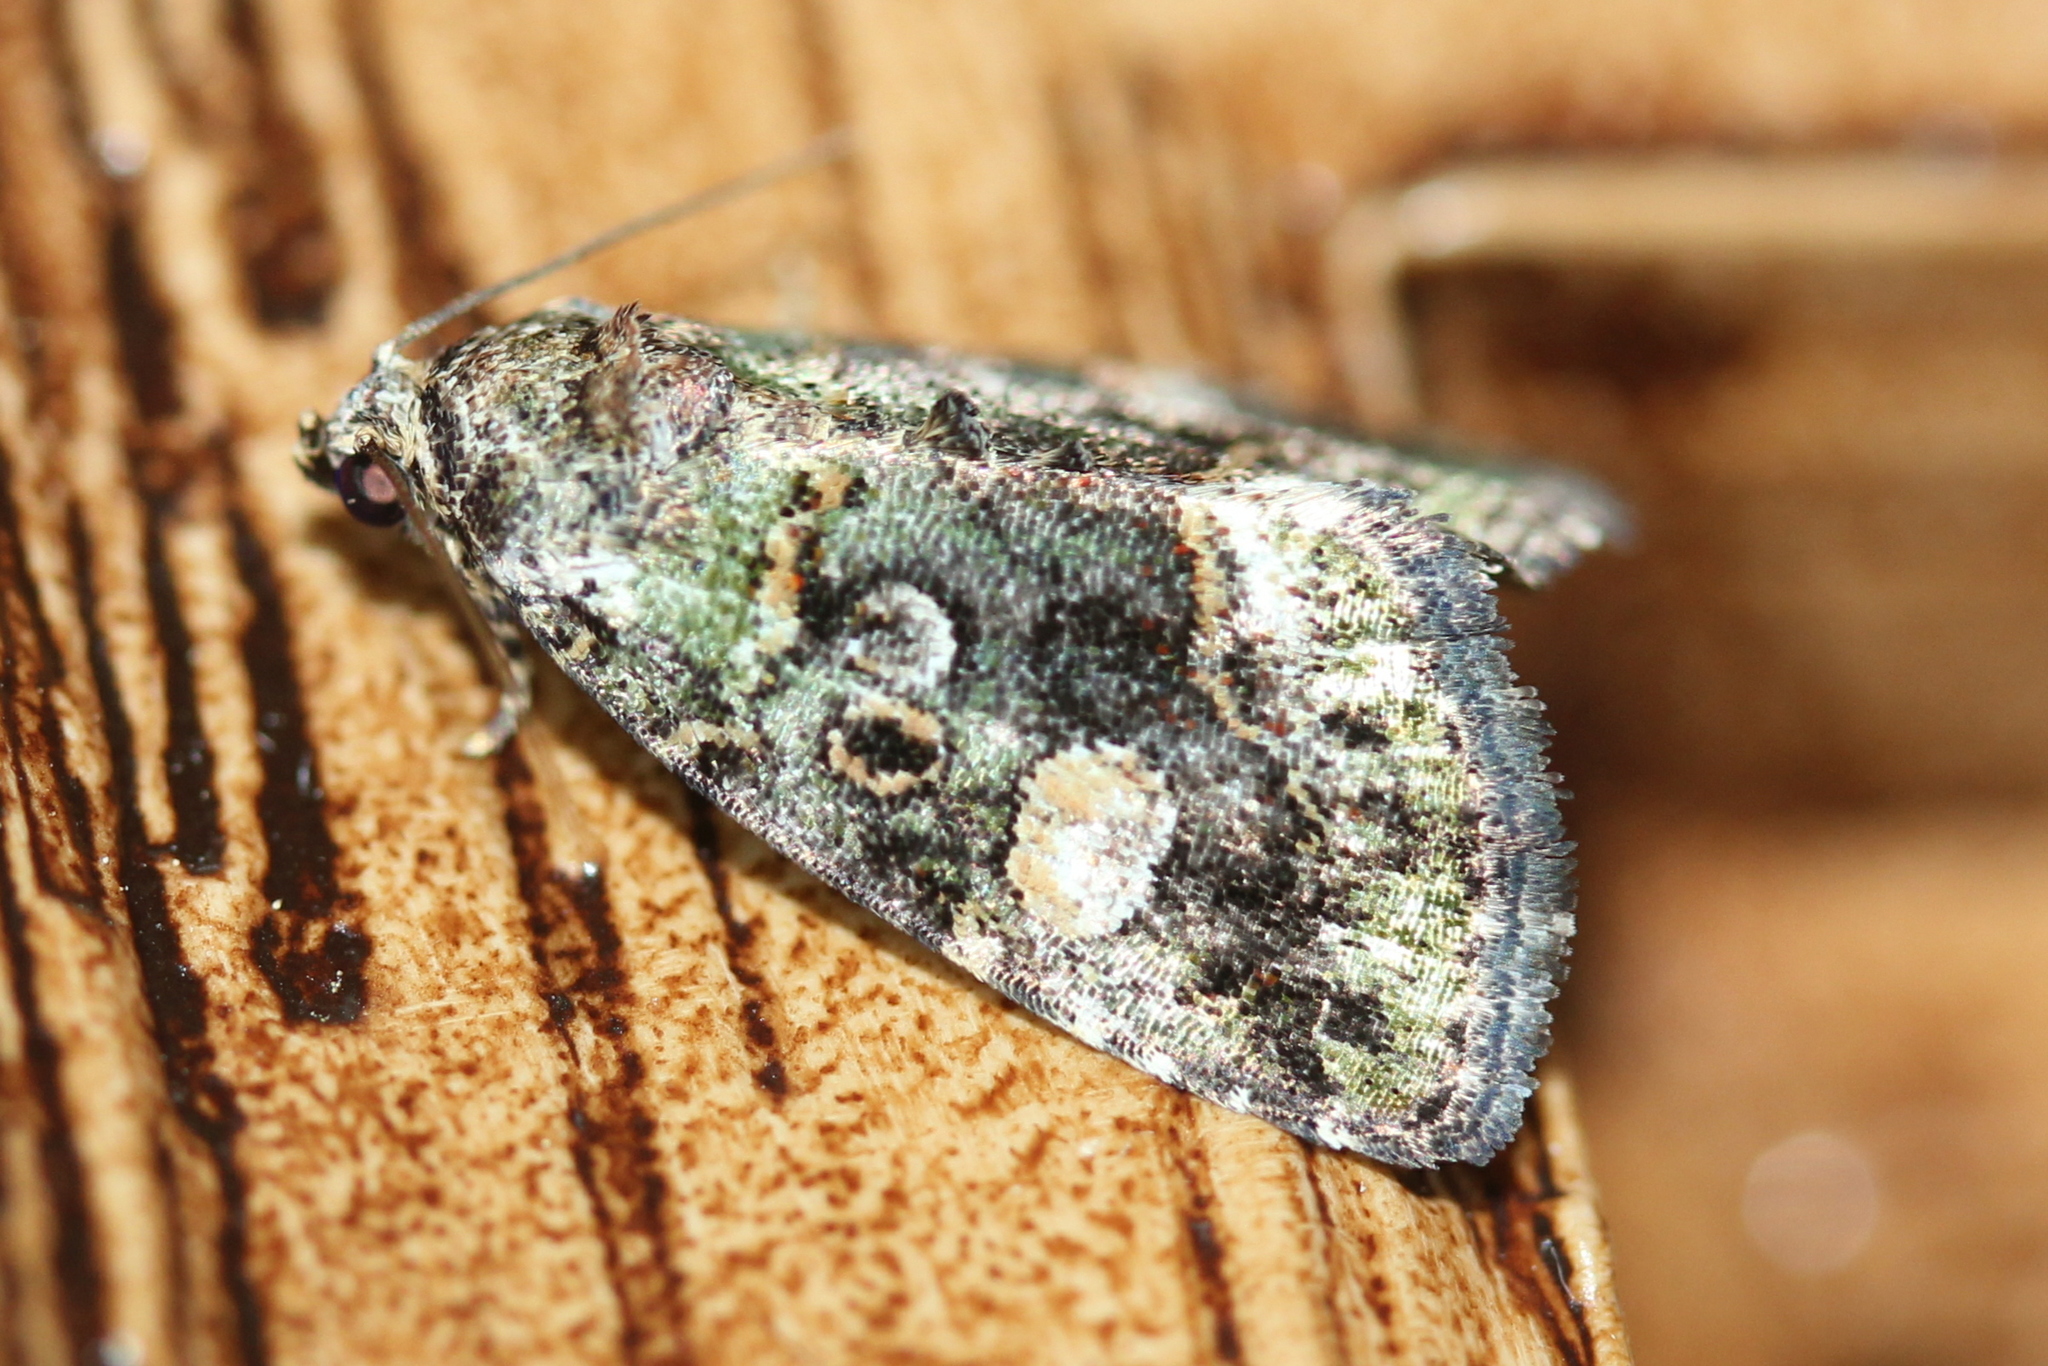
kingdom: Animalia
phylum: Arthropoda
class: Insecta
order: Lepidoptera
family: Noctuidae
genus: Lithacodia
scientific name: Lithacodia musta
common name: Small mossy glyph
